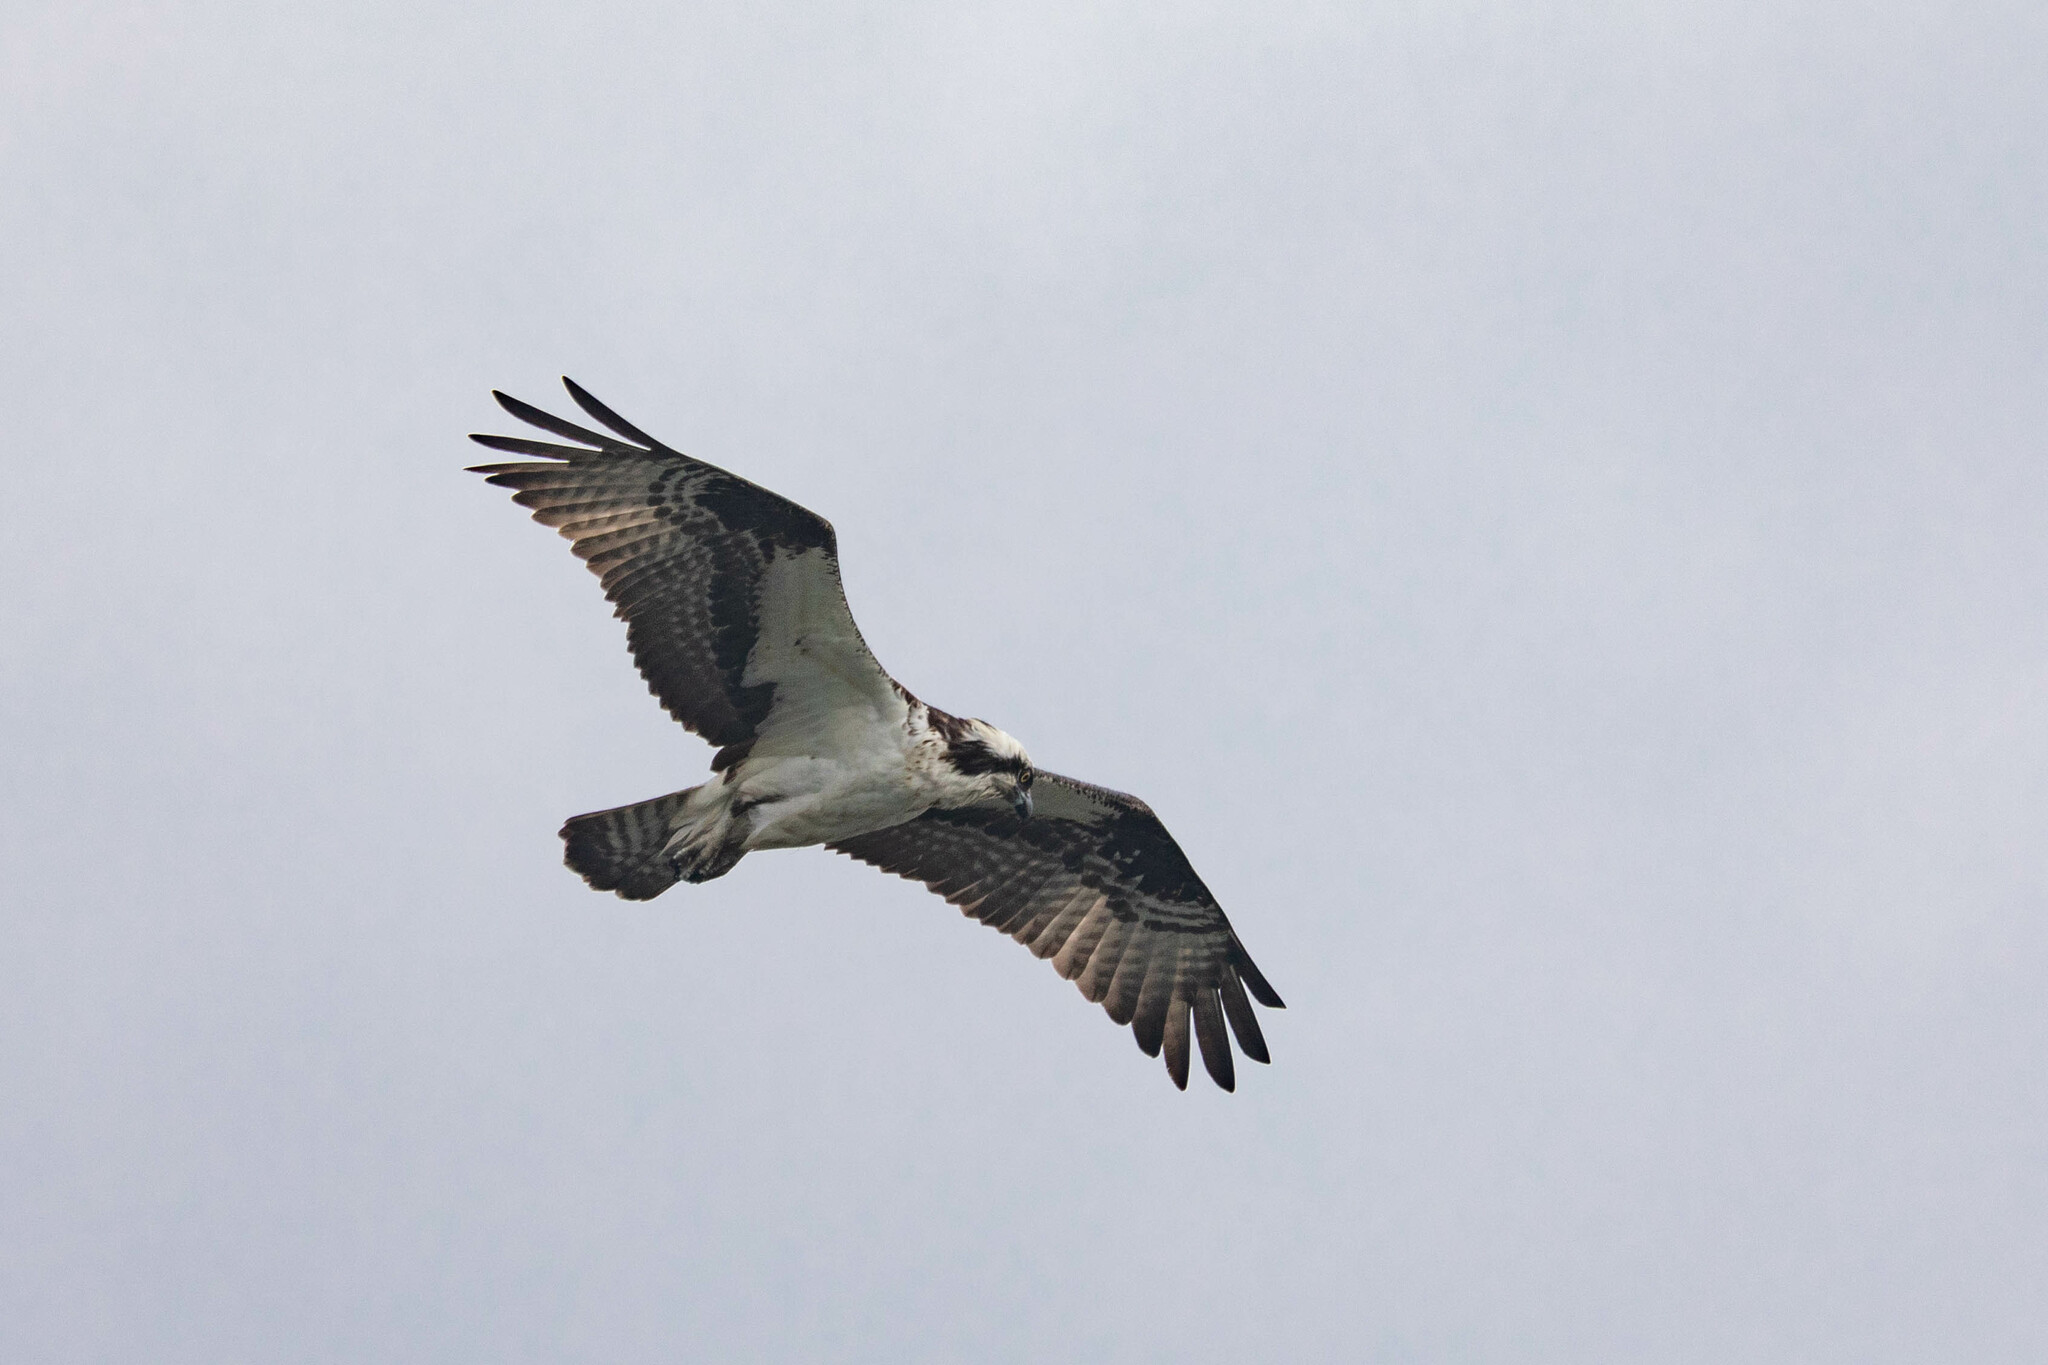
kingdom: Animalia
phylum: Chordata
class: Aves
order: Accipitriformes
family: Pandionidae
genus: Pandion
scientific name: Pandion haliaetus
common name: Osprey
